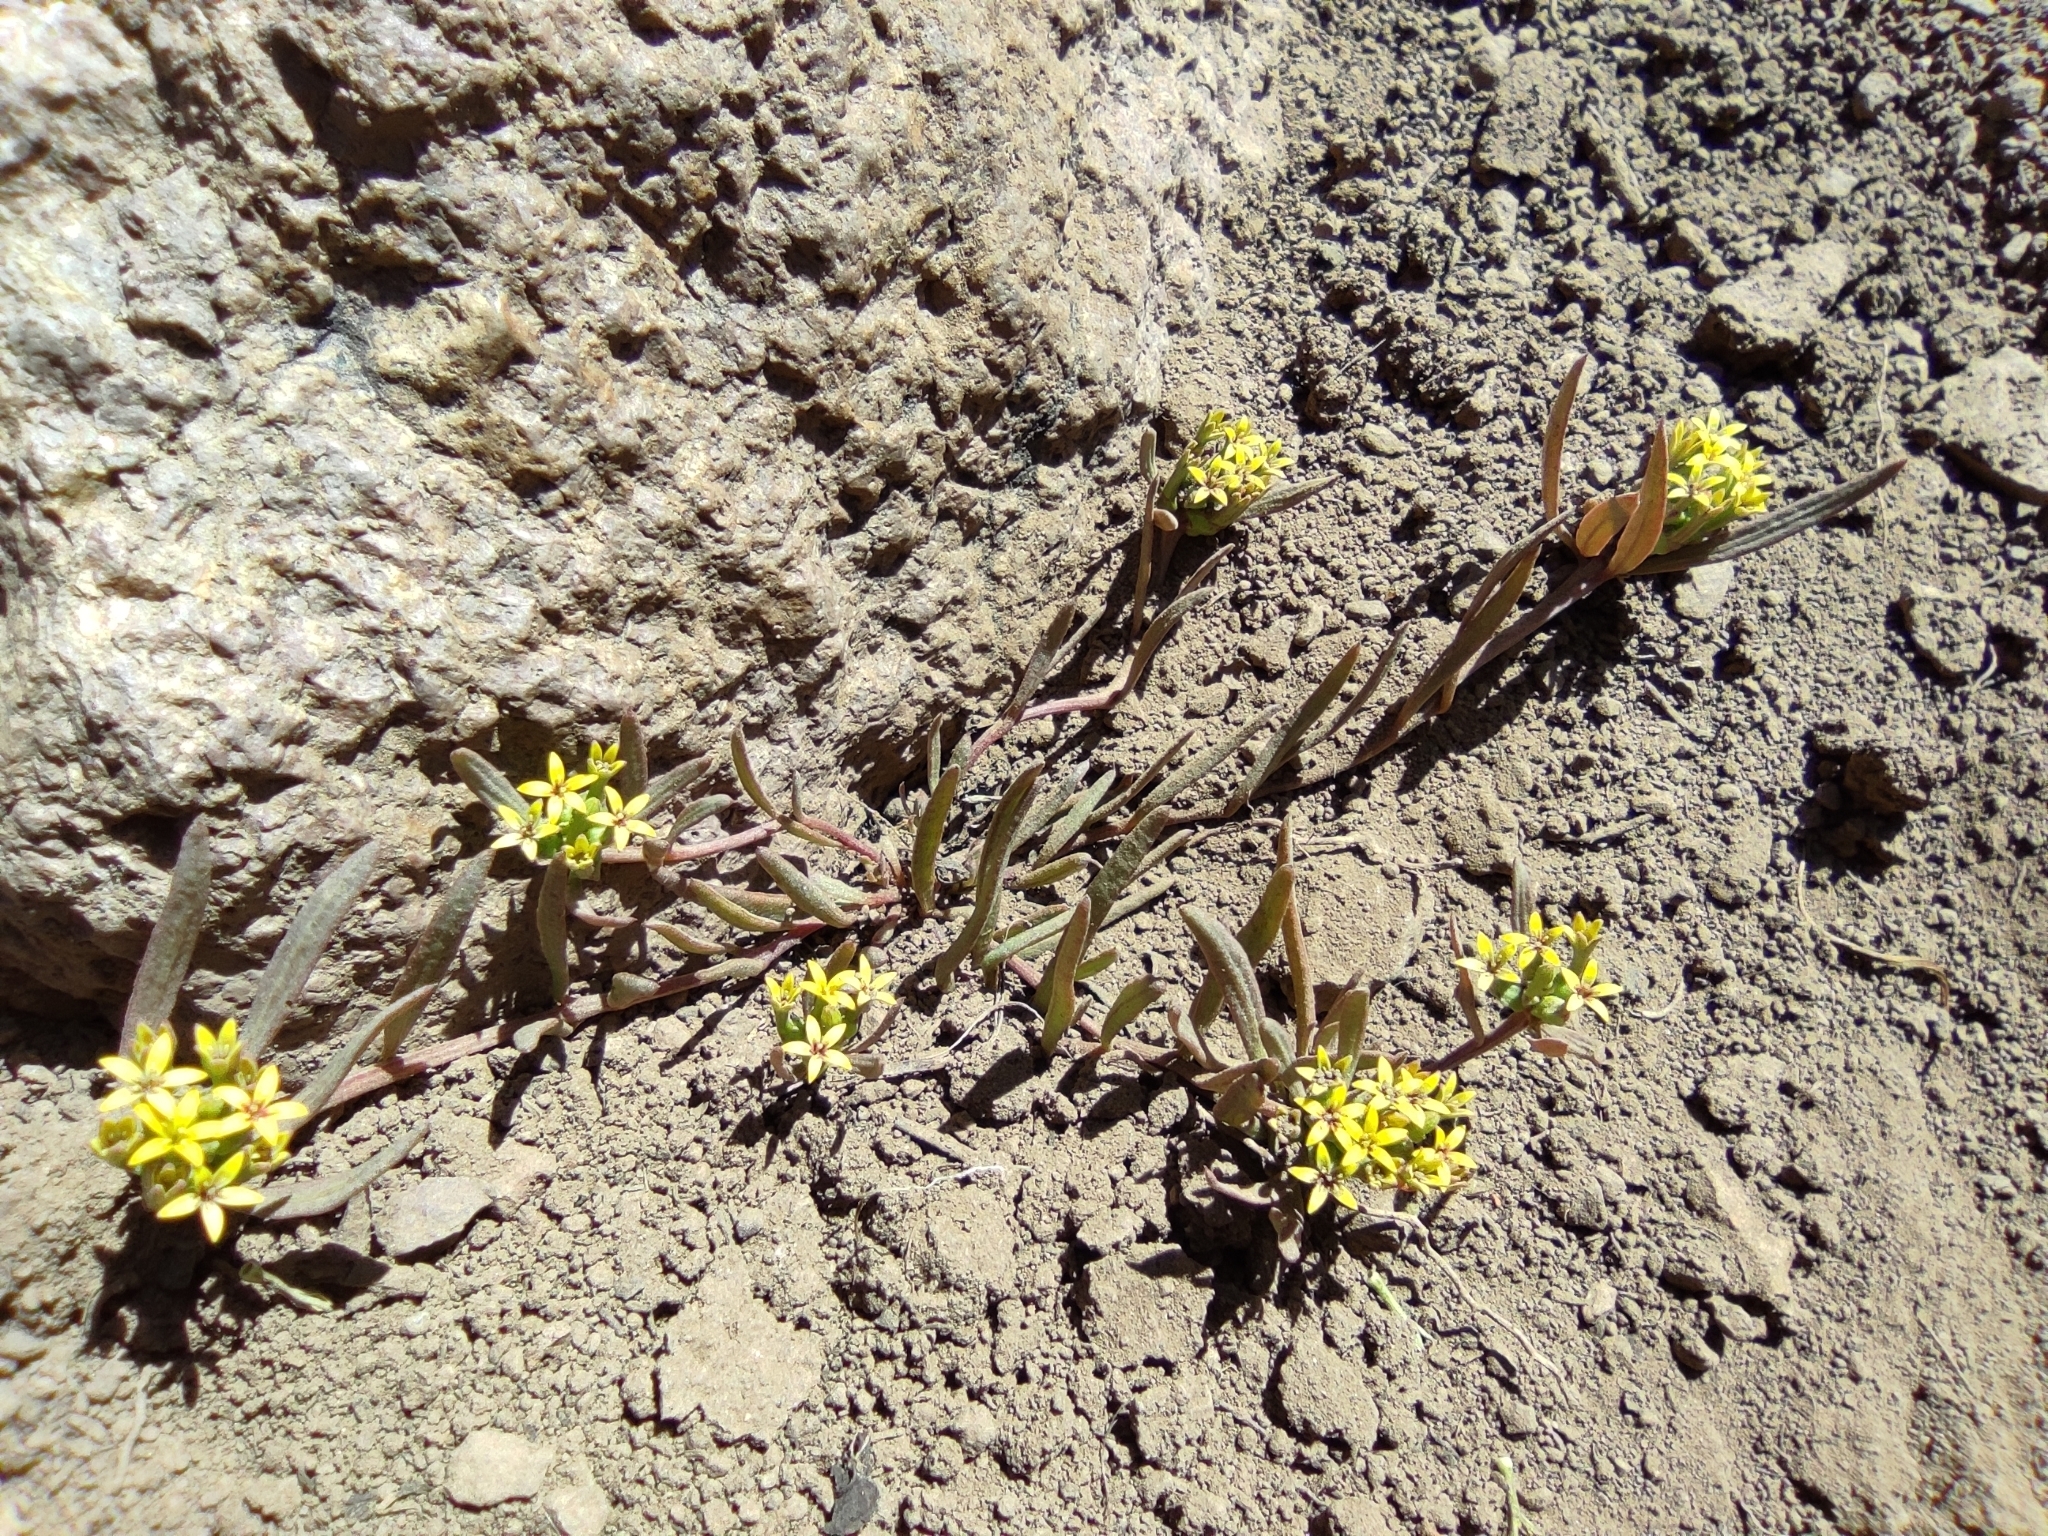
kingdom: Plantae
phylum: Tracheophyta
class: Magnoliopsida
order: Santalales
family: Schoepfiaceae
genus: Quinchamalium
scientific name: Quinchamalium chilense
